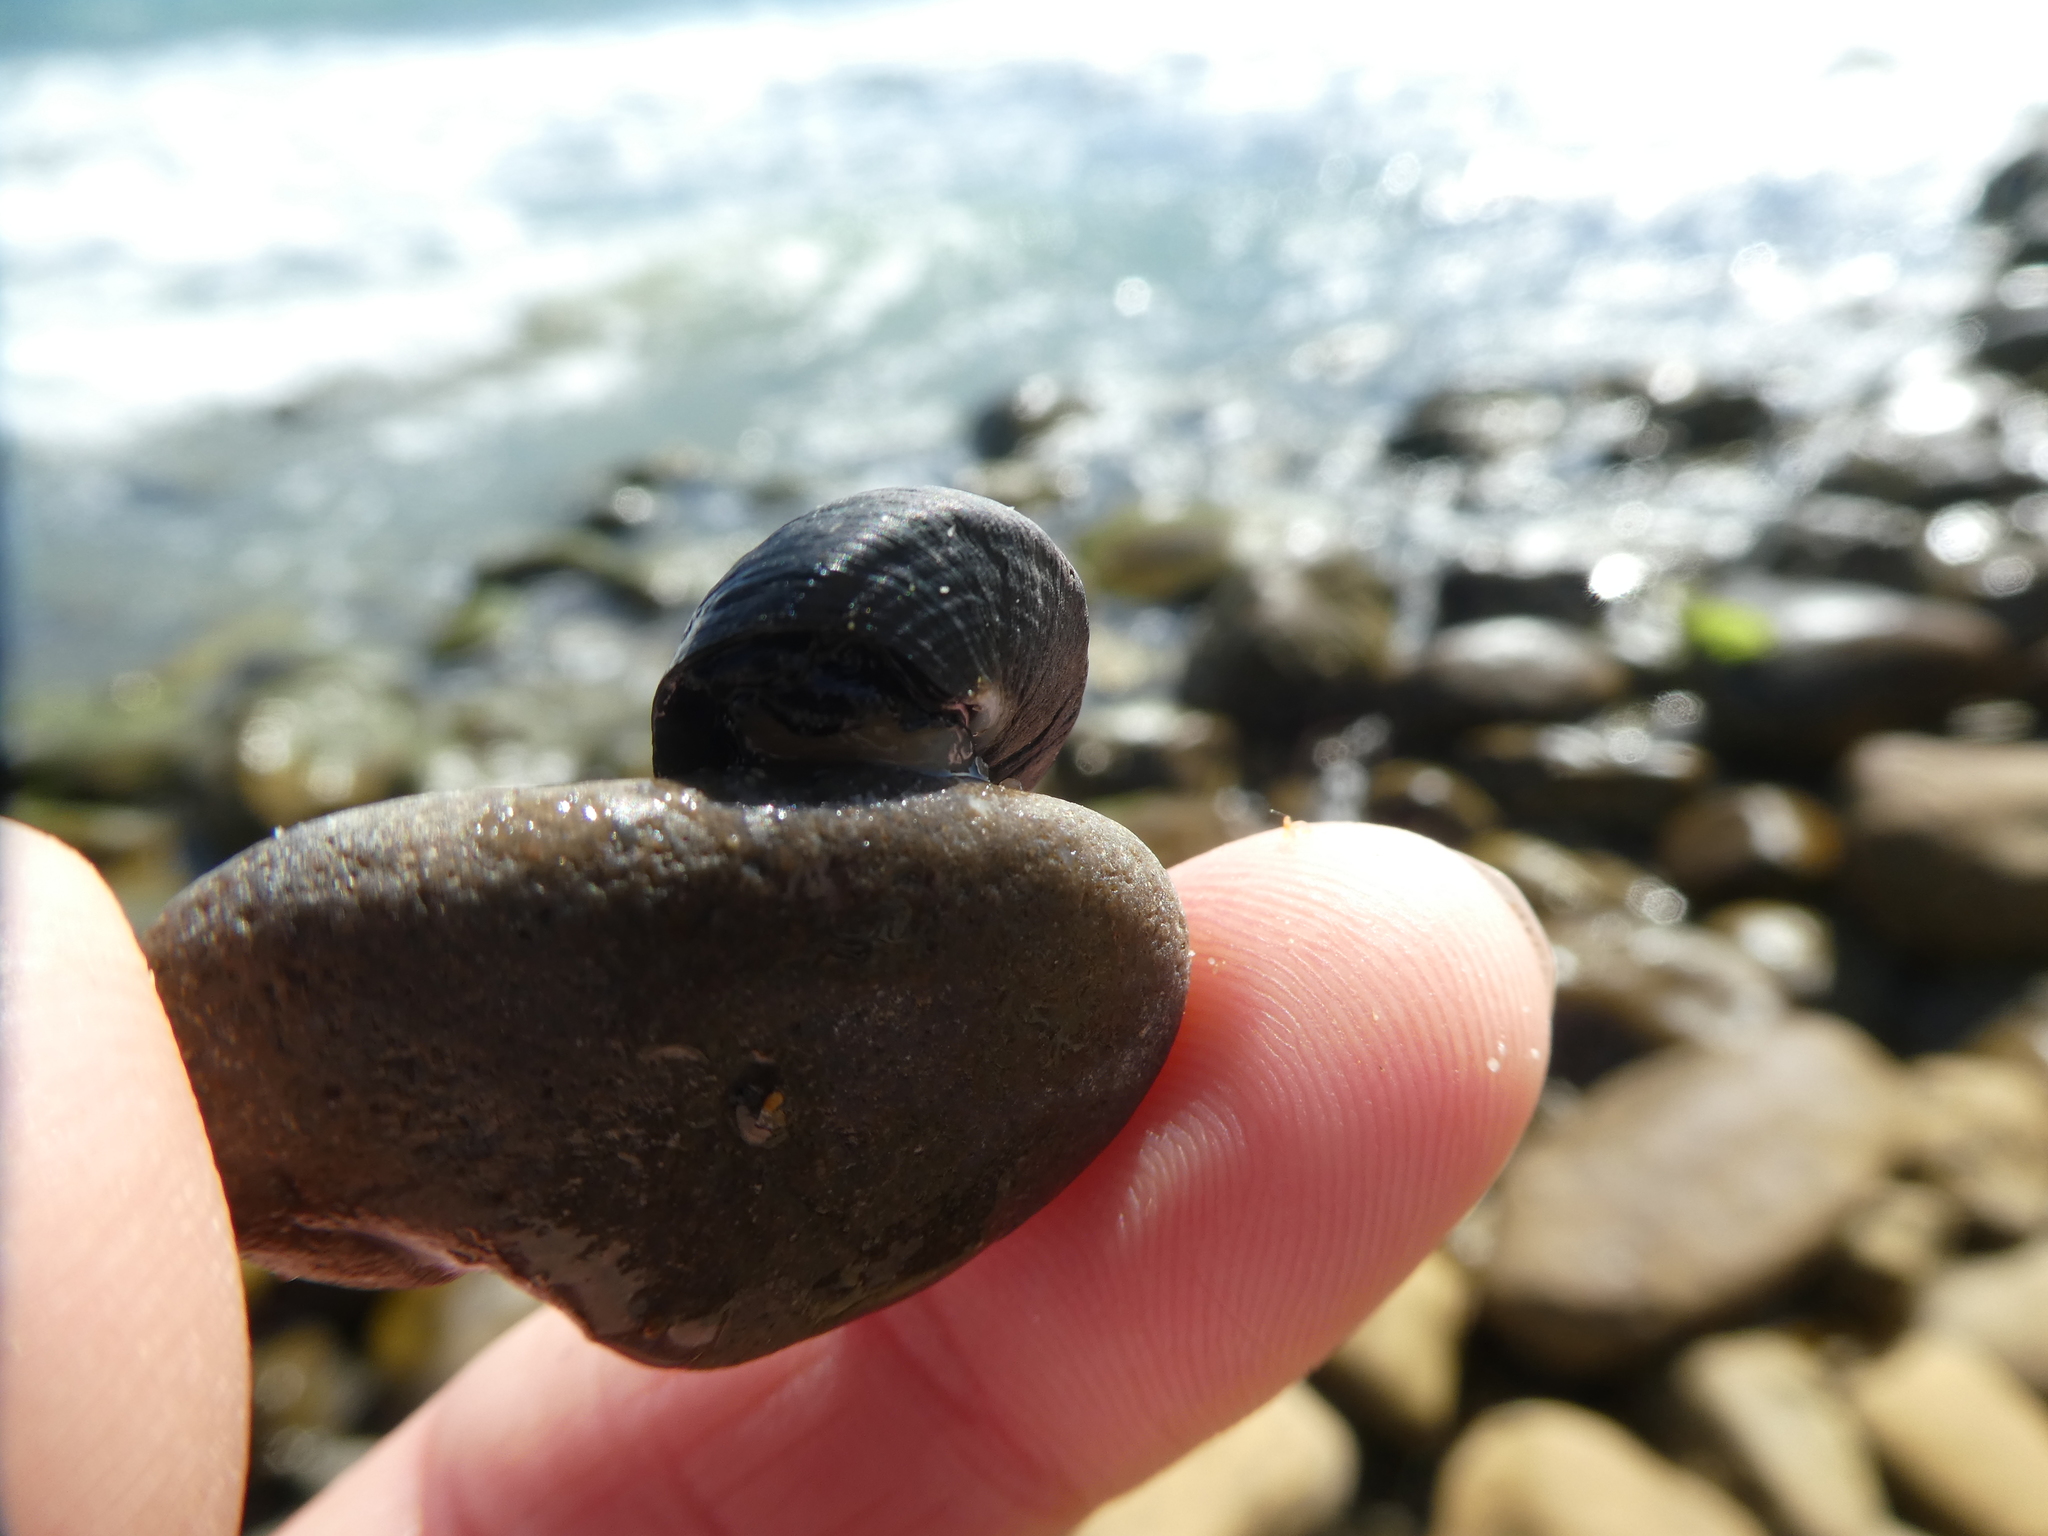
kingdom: Animalia
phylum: Mollusca
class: Gastropoda
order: Trochida
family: Tegulidae
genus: Tegula
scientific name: Tegula funebralis
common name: Black tegula
